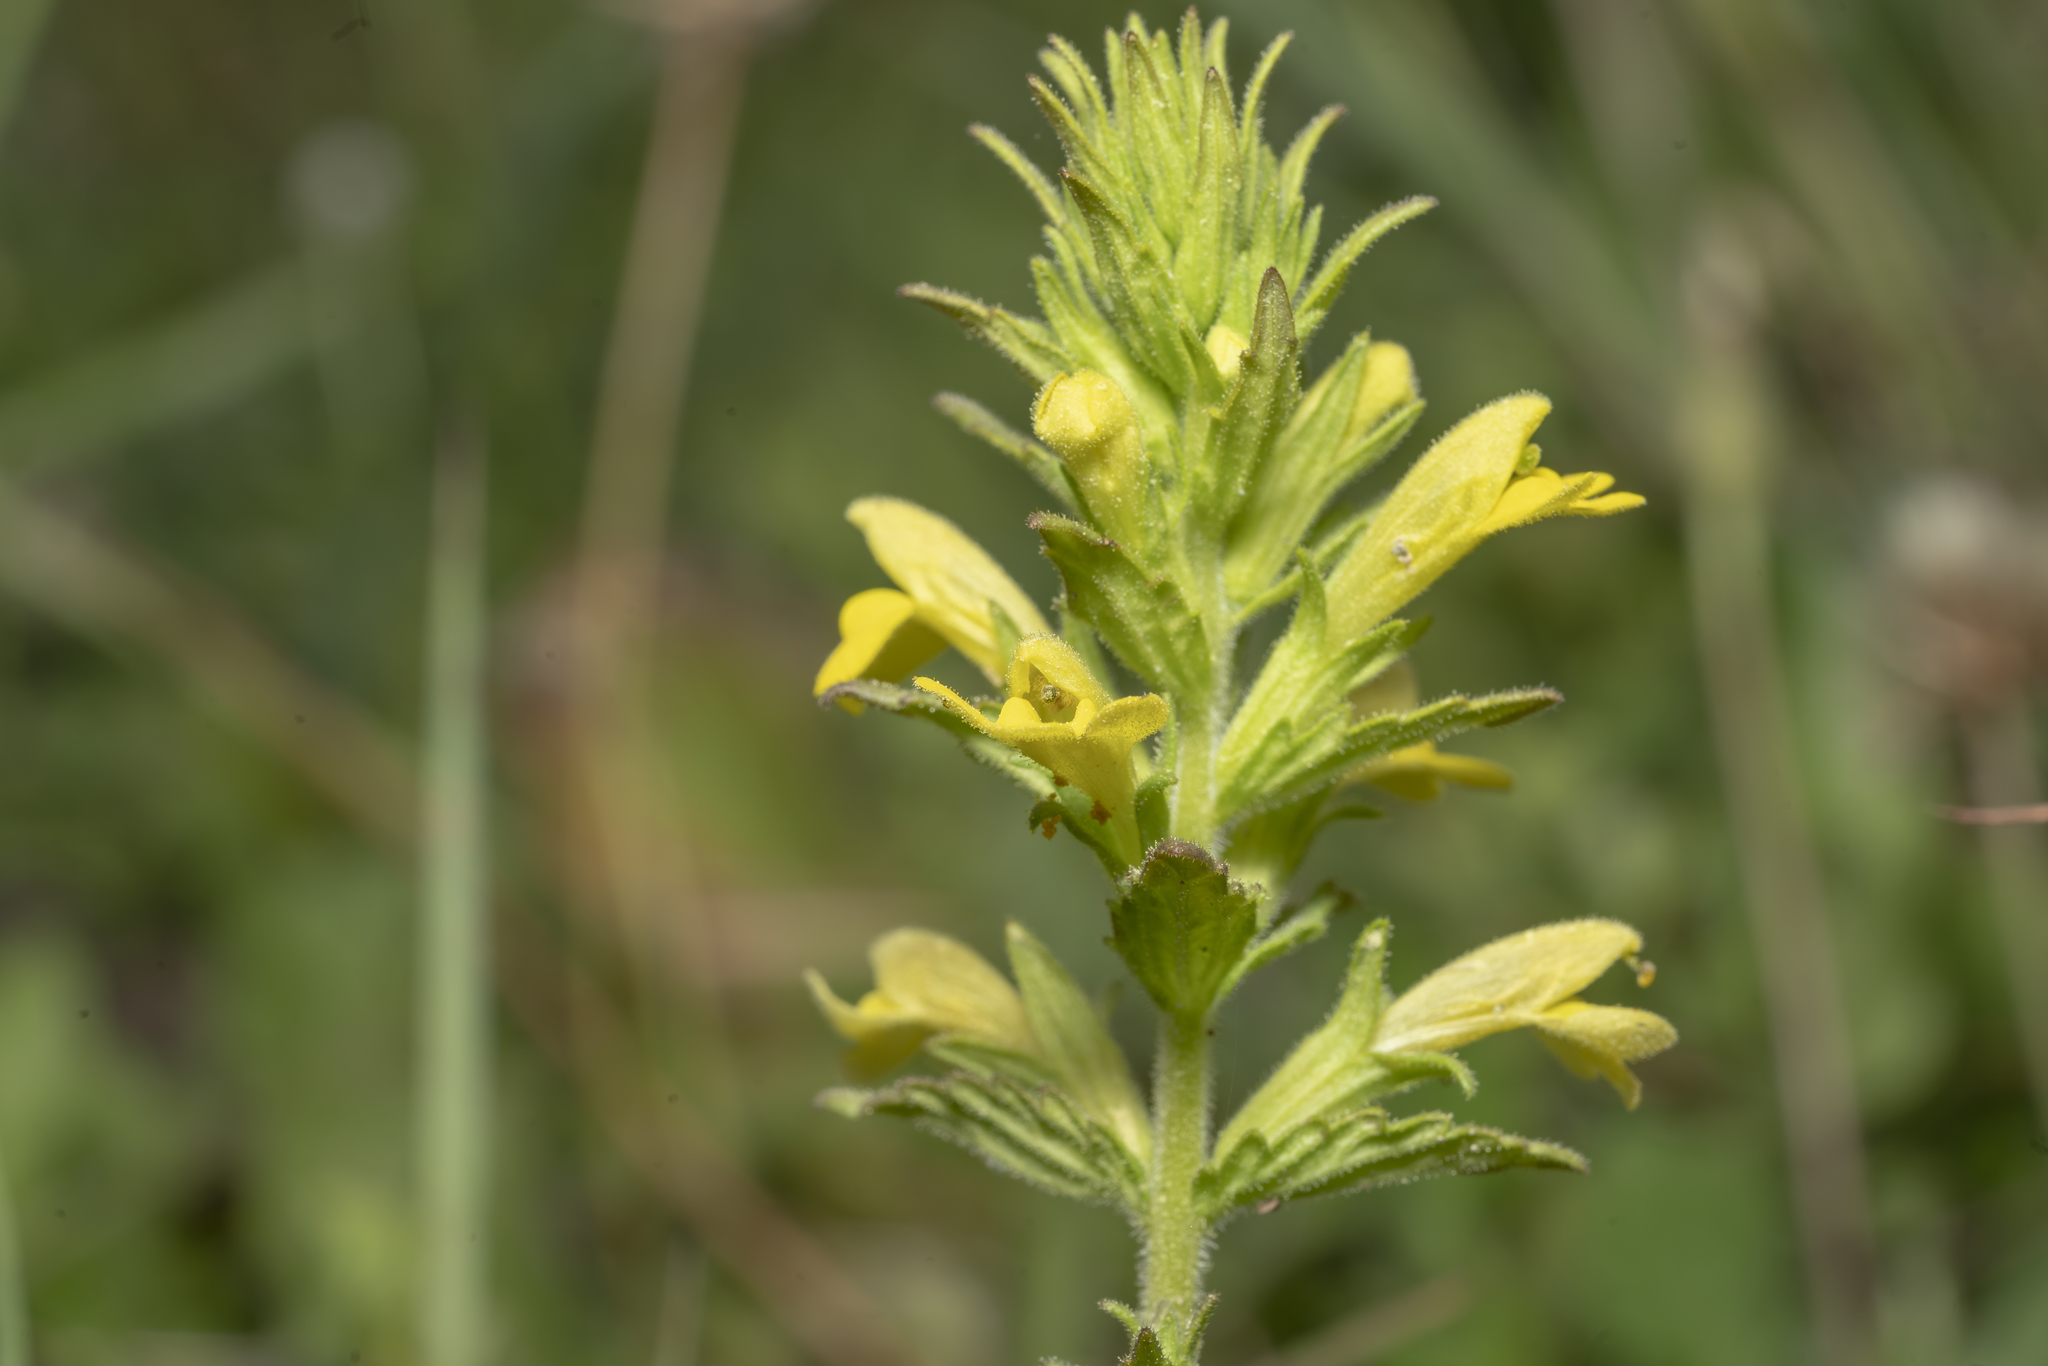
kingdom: Plantae
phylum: Tracheophyta
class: Magnoliopsida
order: Lamiales
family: Orobanchaceae
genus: Bellardia
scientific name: Bellardia viscosa
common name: Sticky parentucellia
